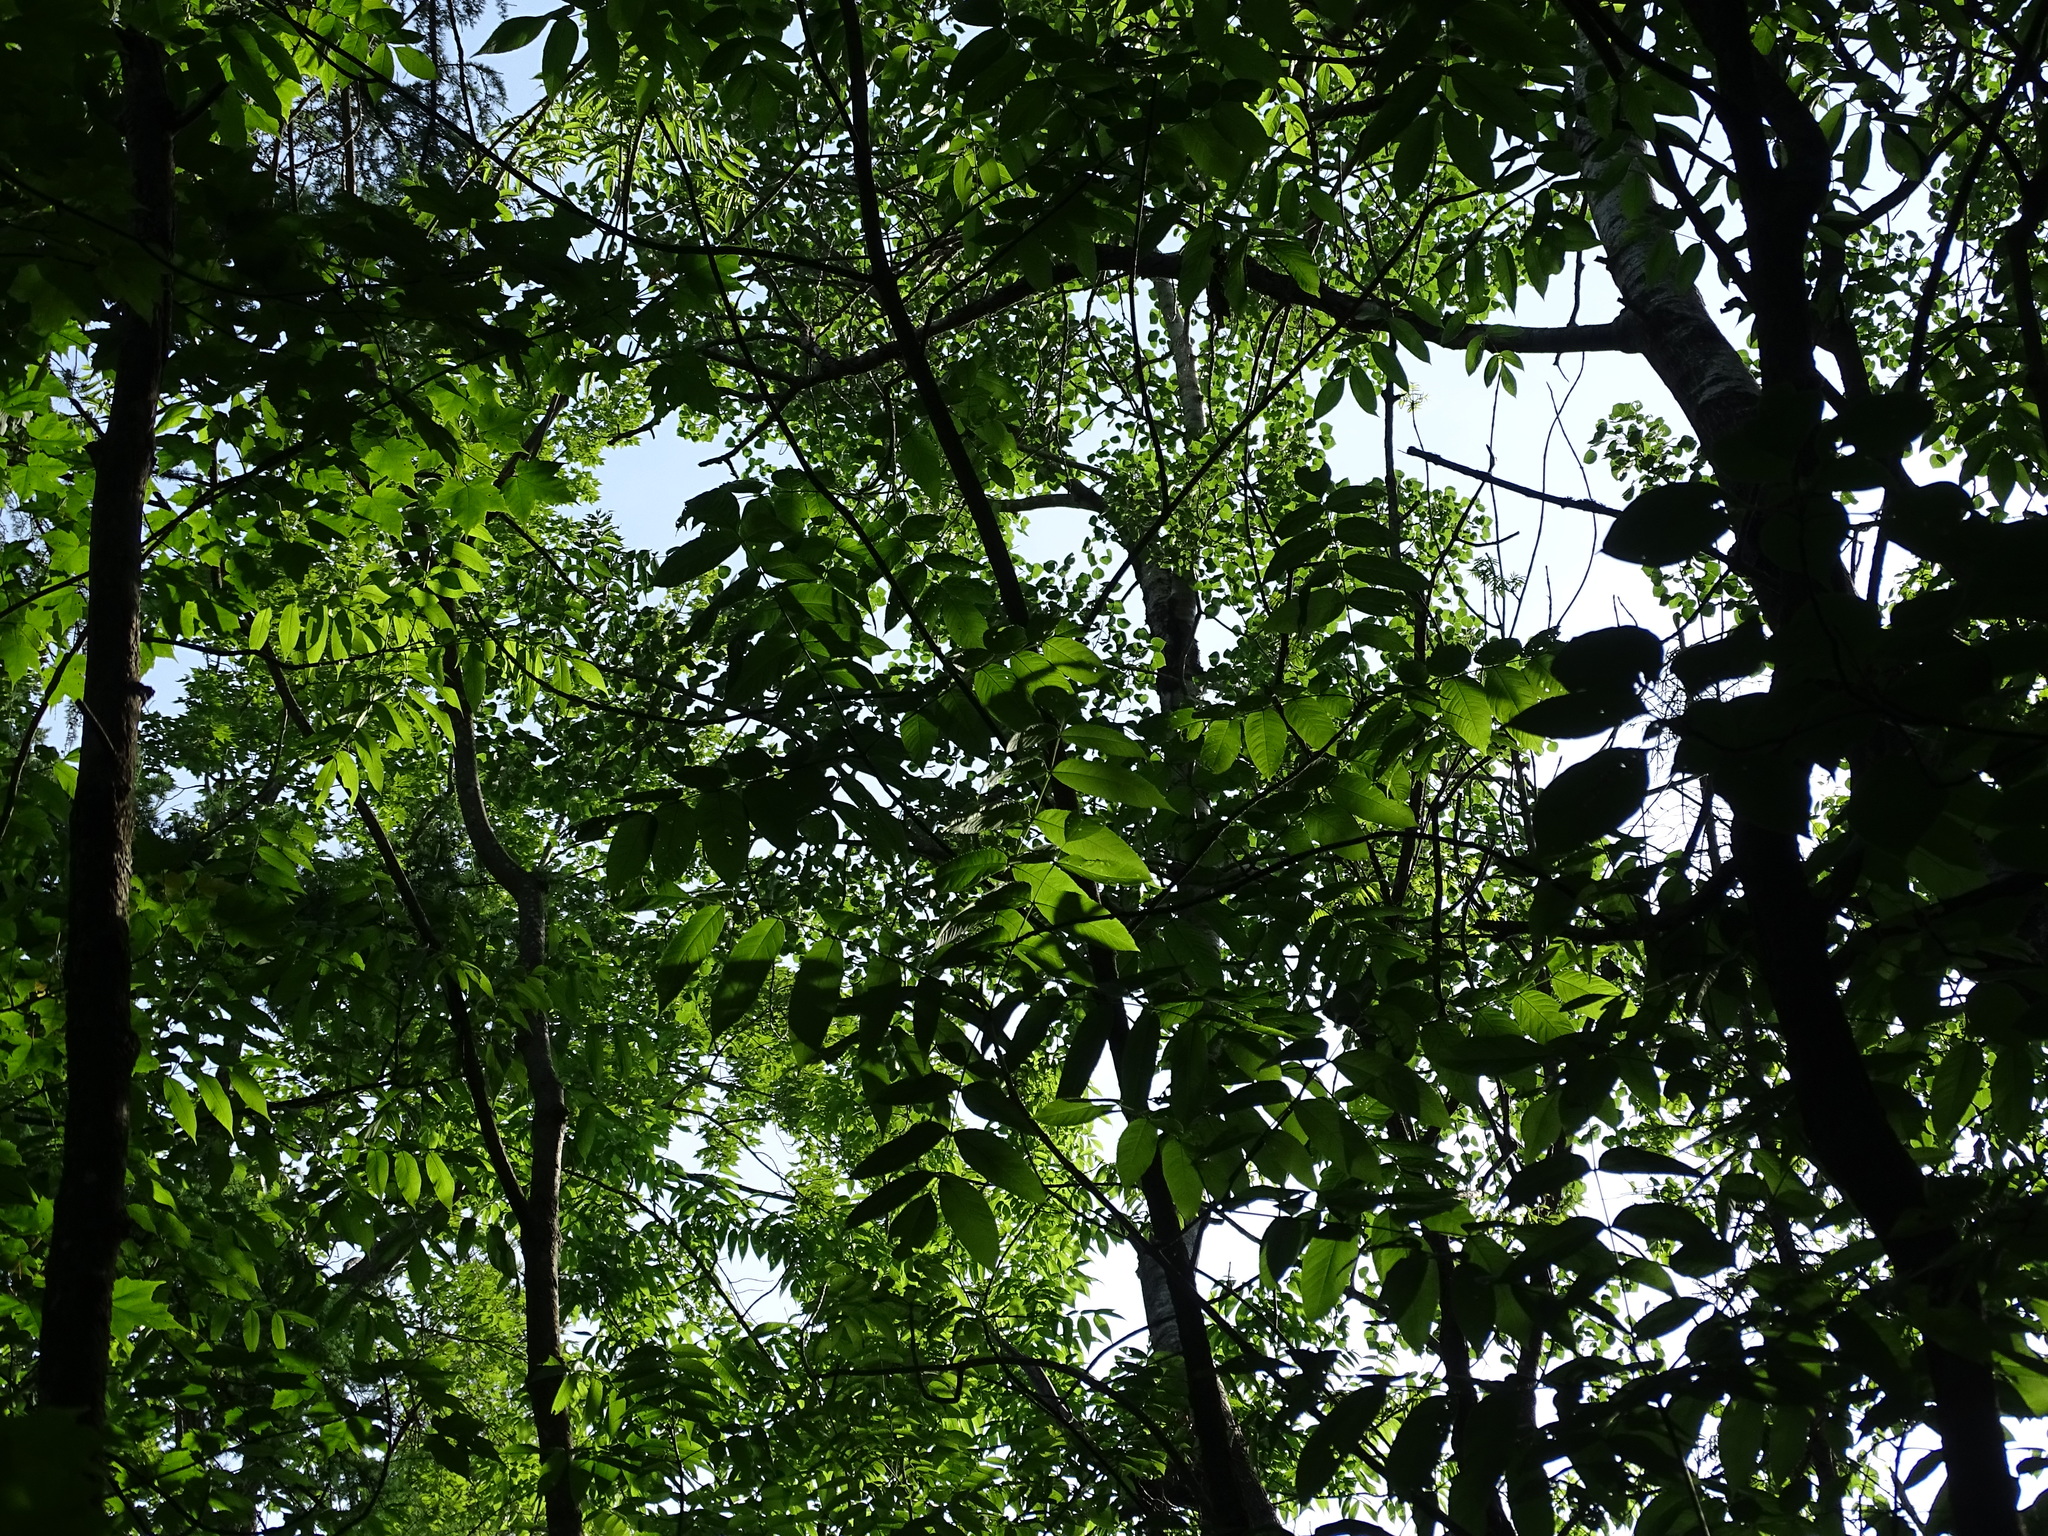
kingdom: Plantae
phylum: Tracheophyta
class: Magnoliopsida
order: Lamiales
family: Oleaceae
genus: Fraxinus
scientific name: Fraxinus nigra
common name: Black ash
